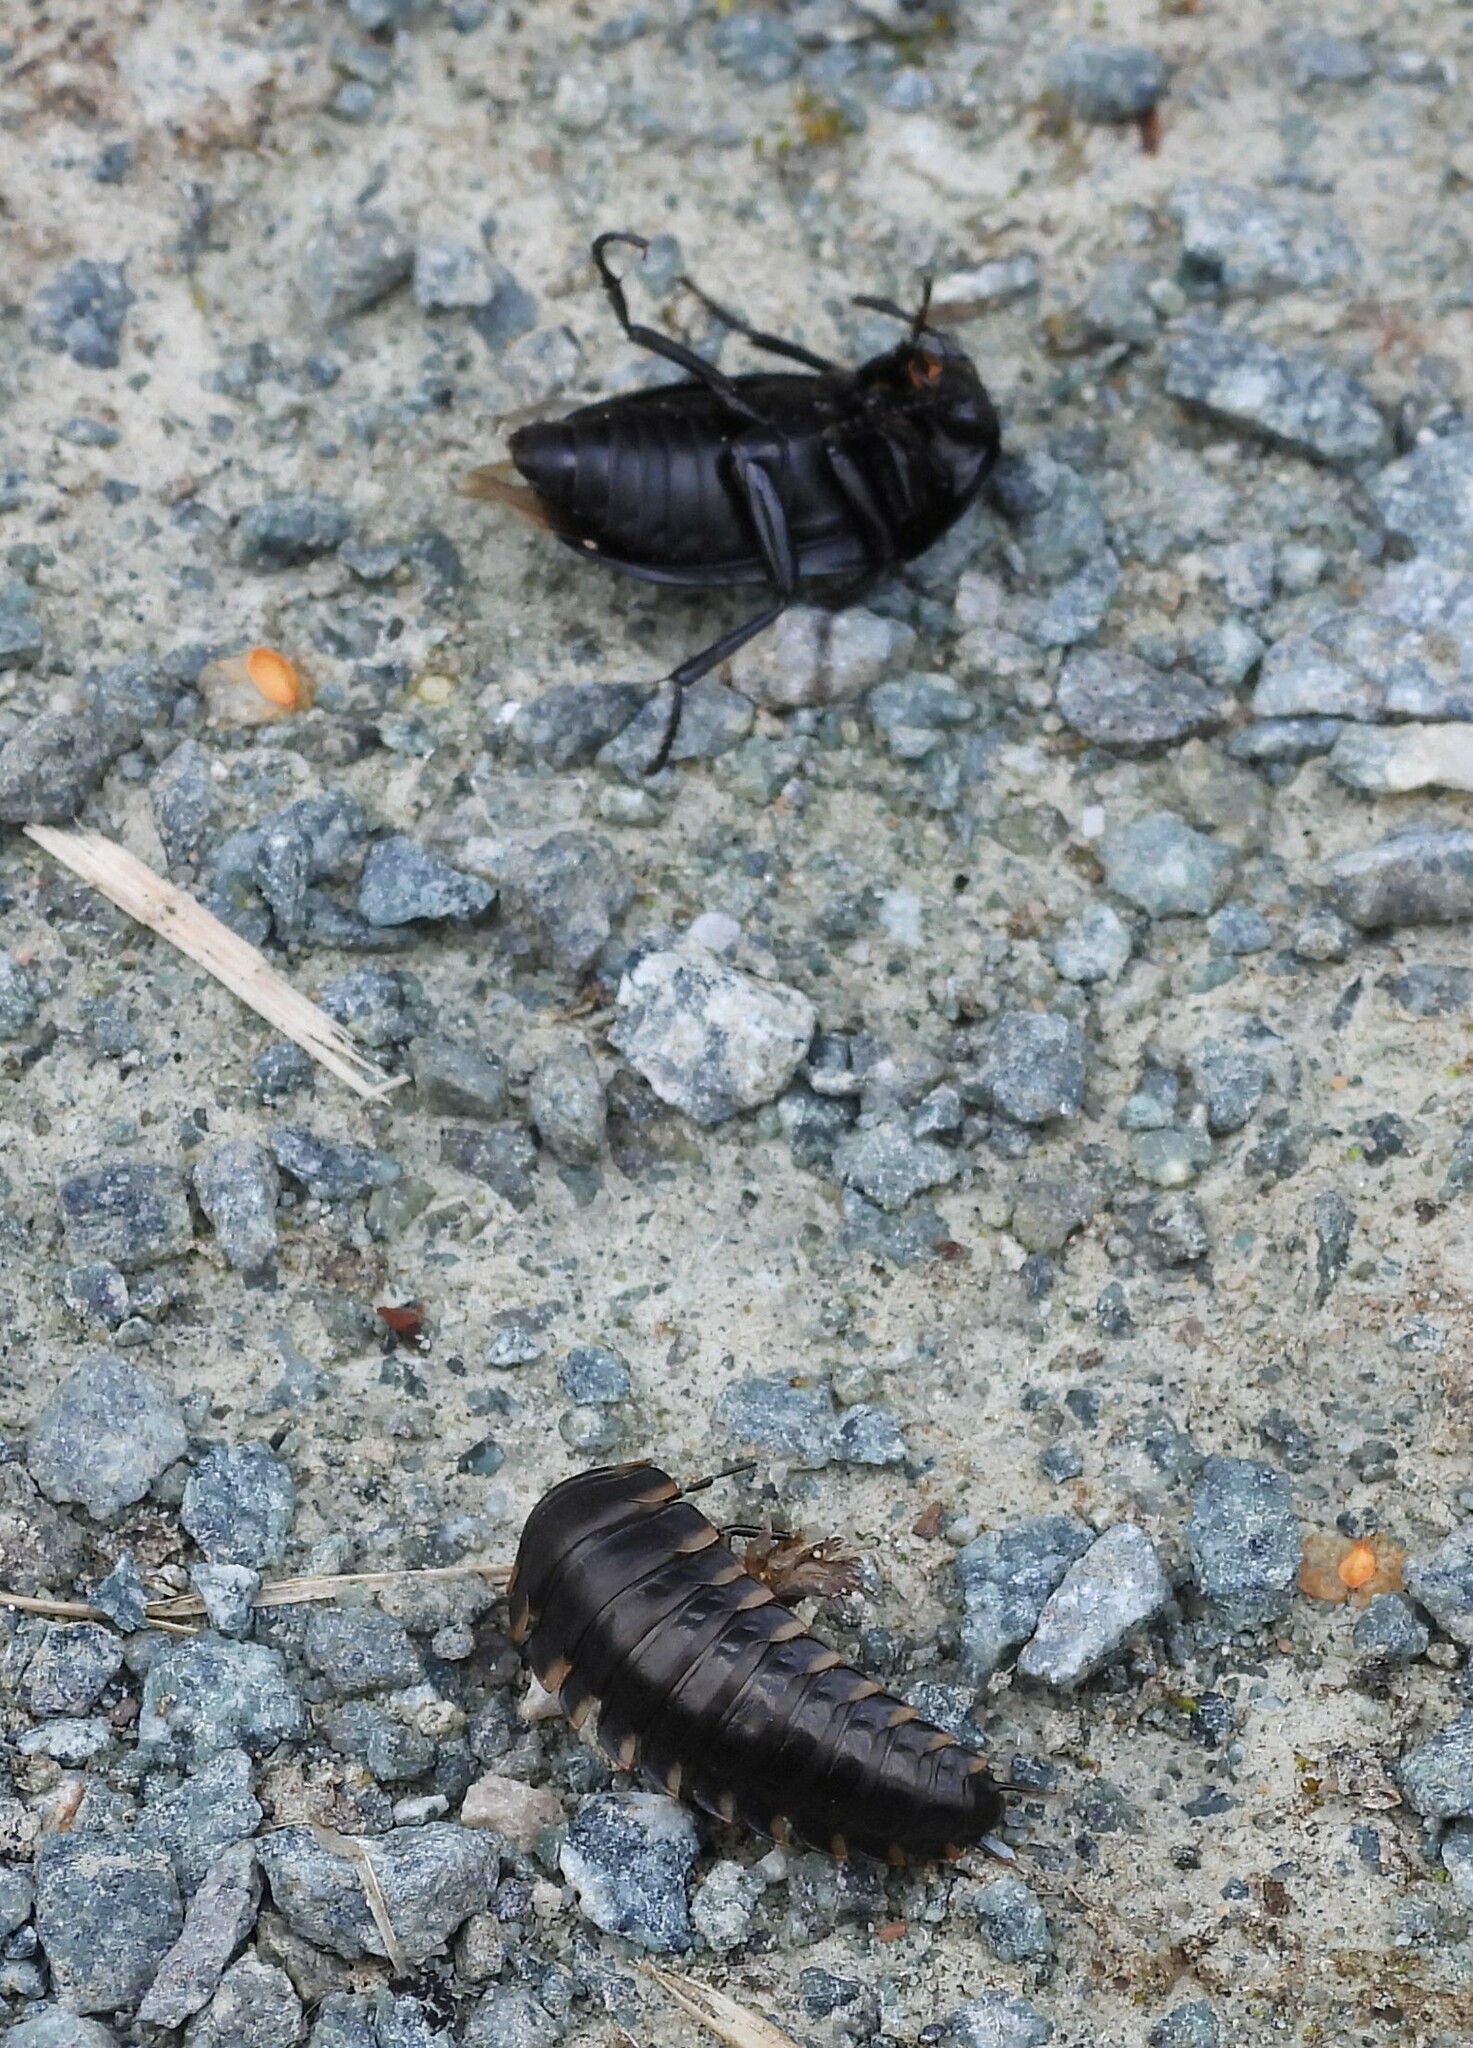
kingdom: Animalia
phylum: Arthropoda
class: Insecta
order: Coleoptera
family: Staphylinidae
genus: Silpha
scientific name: Silpha tristis
